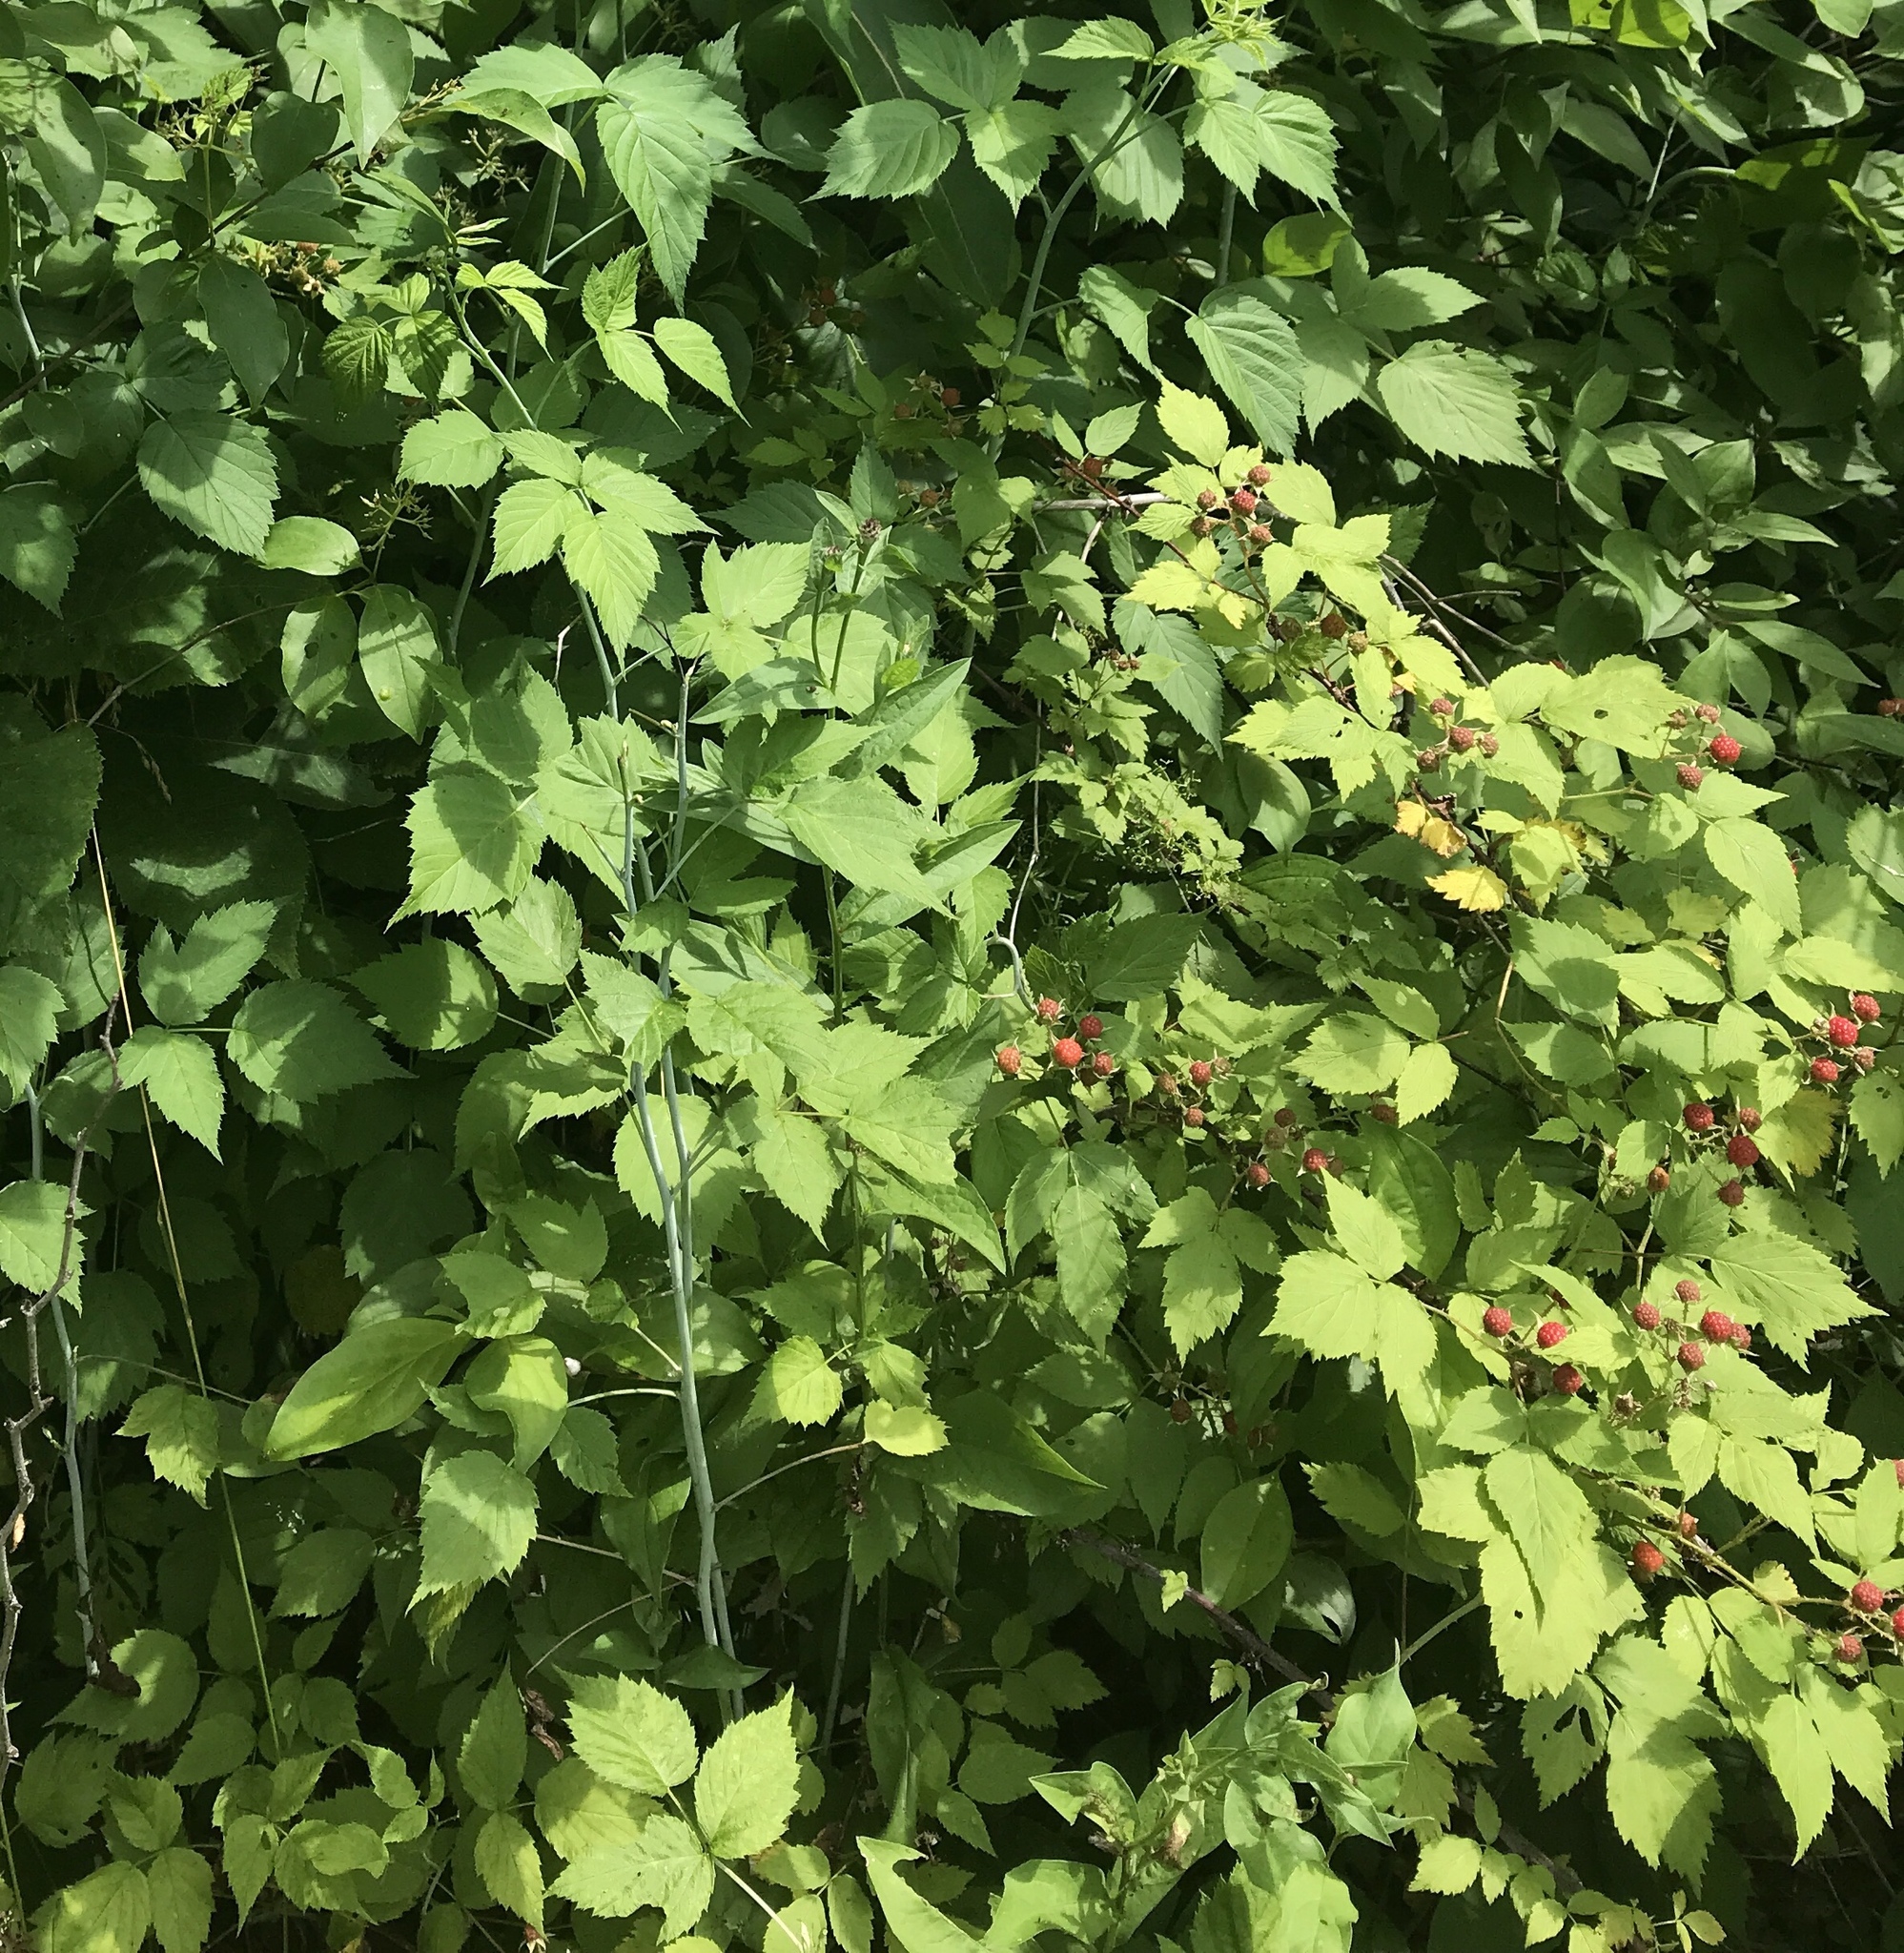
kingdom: Plantae
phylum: Tracheophyta
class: Magnoliopsida
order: Rosales
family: Rosaceae
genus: Rubus
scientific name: Rubus occidentalis
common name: Black raspberry
